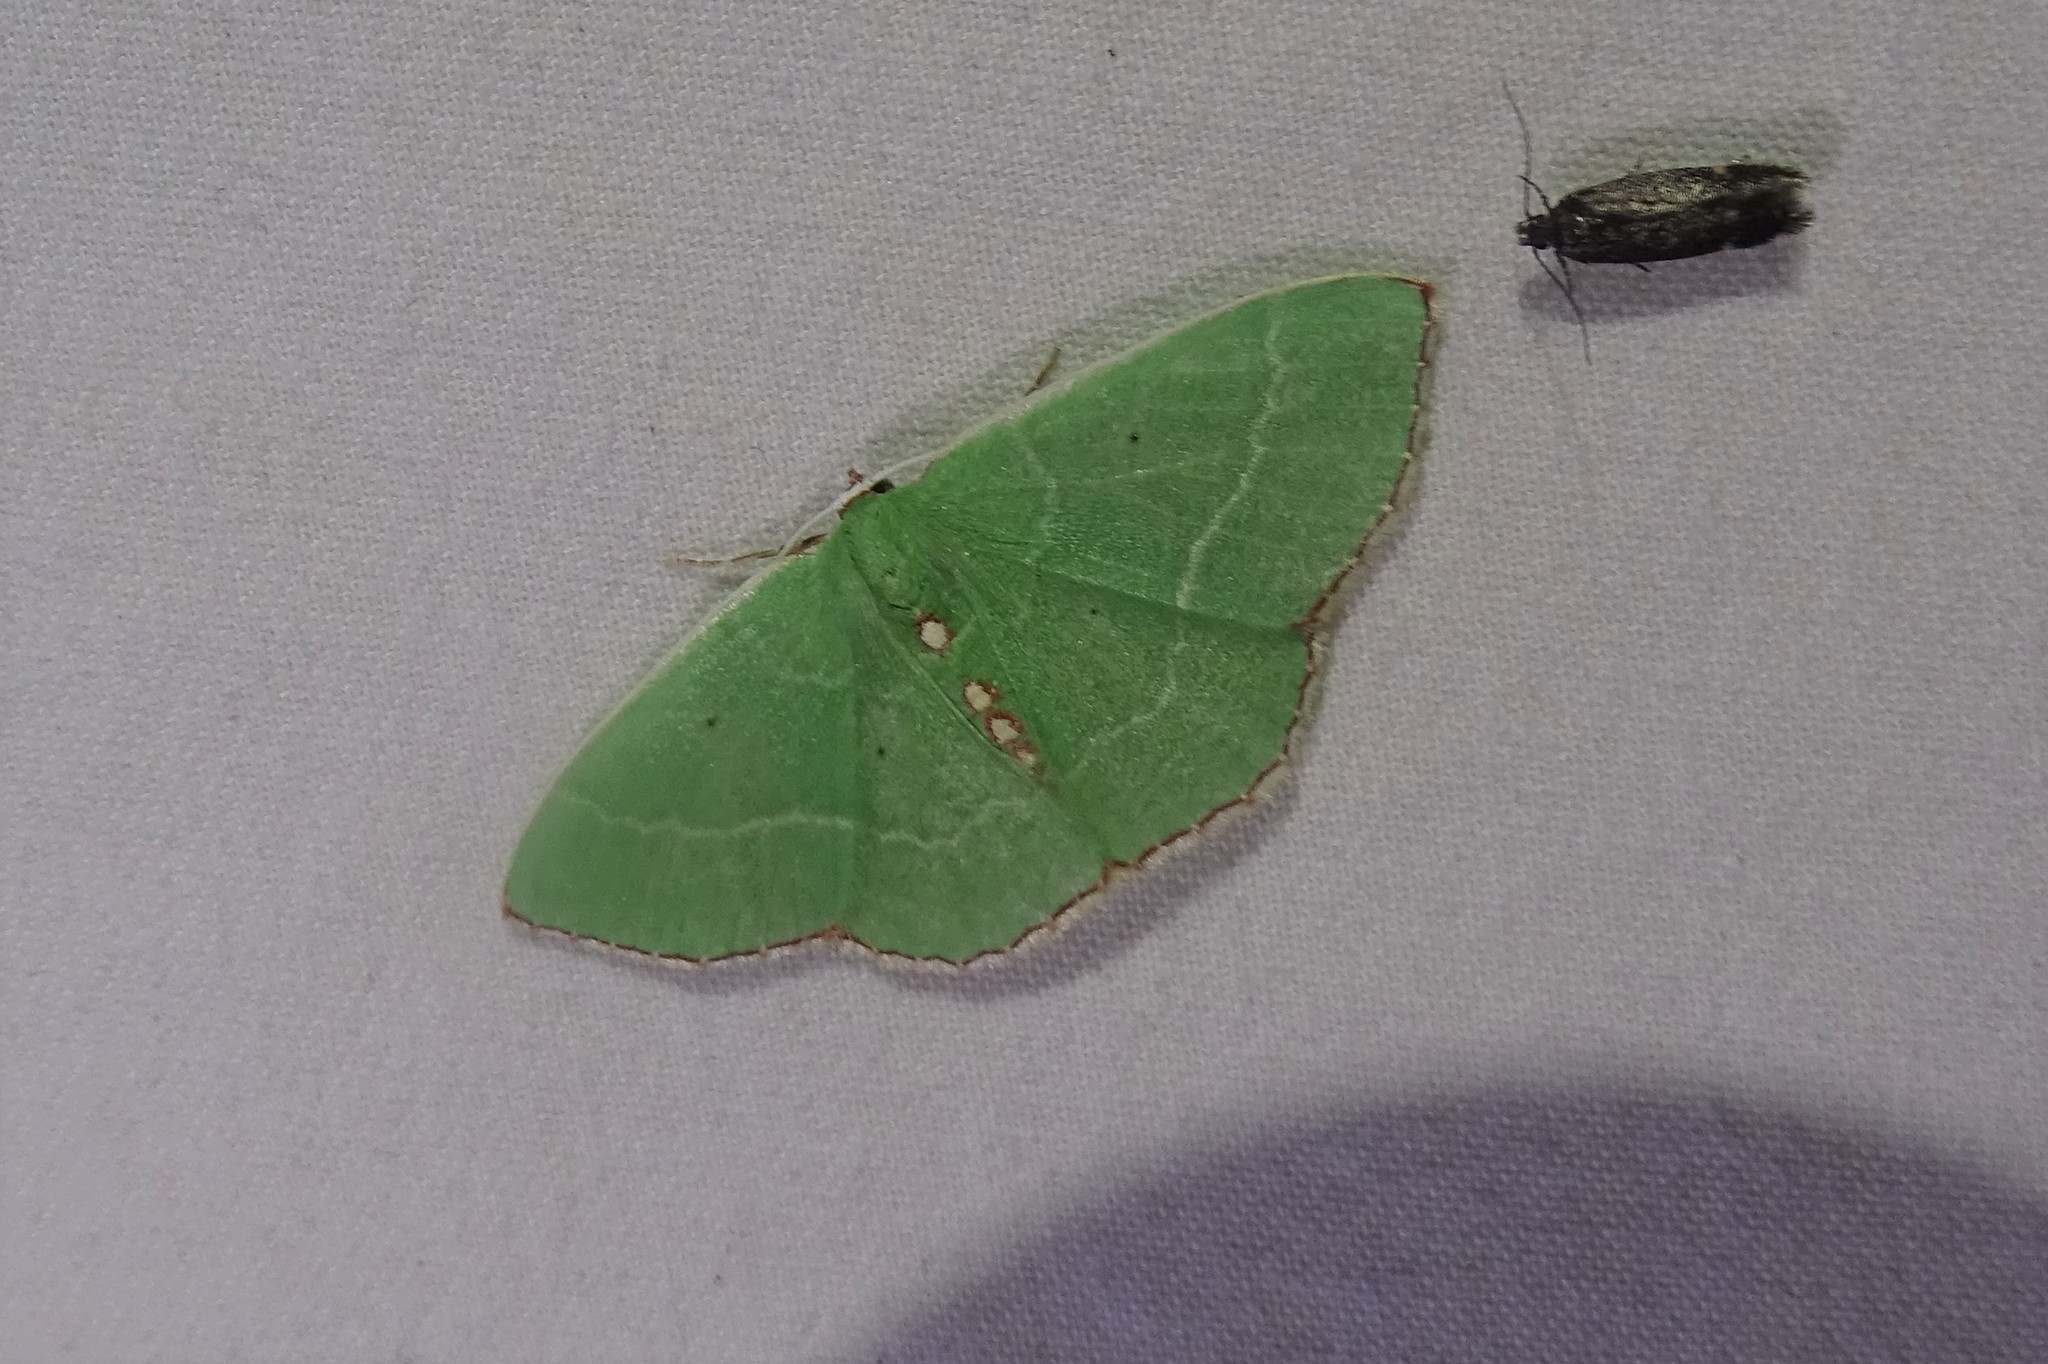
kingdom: Animalia
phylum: Arthropoda
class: Insecta
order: Lepidoptera
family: Geometridae
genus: Nemoria
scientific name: Nemoria lixaria
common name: Red-bordered emerald
